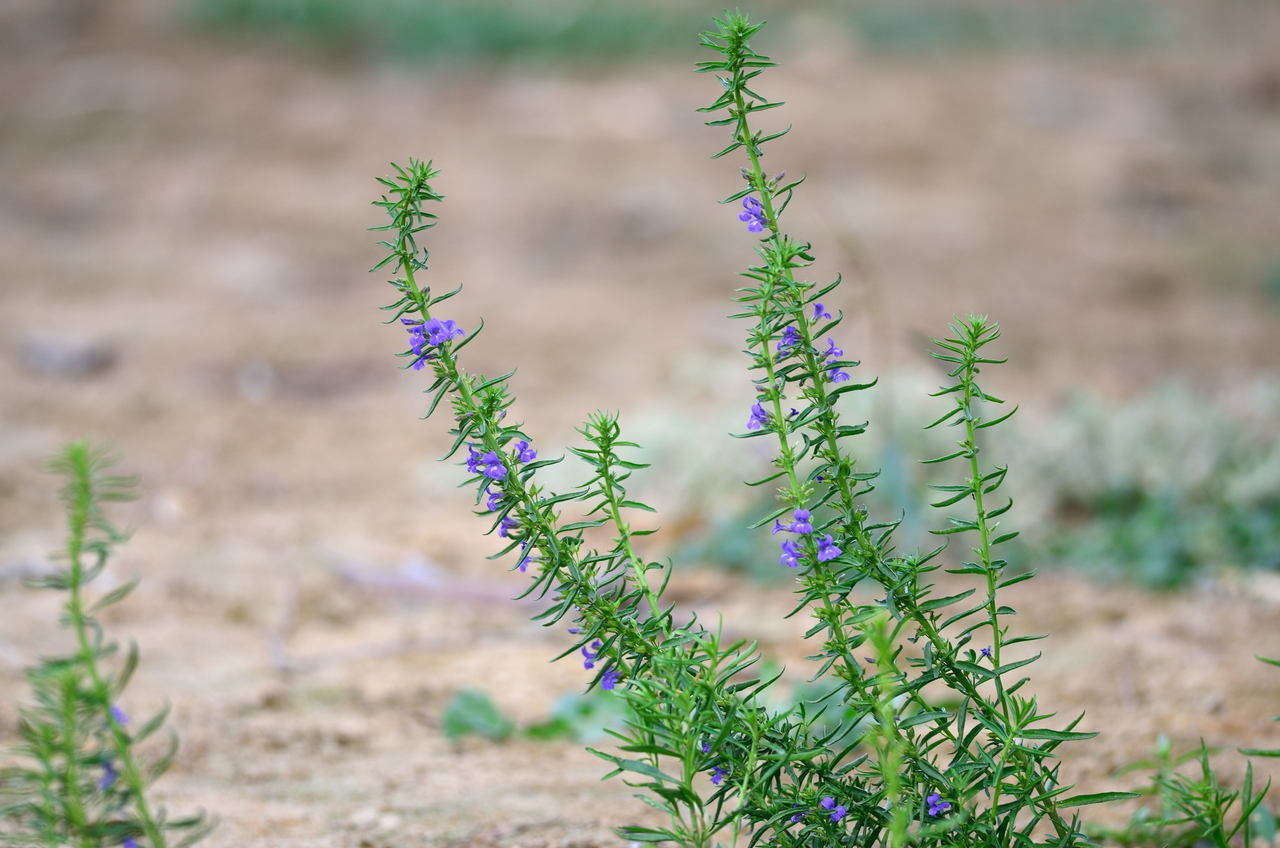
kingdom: Plantae
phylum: Tracheophyta
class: Magnoliopsida
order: Lamiales
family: Plantaginaceae
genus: Stemodia
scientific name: Stemodia florulenta
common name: Bluerod
